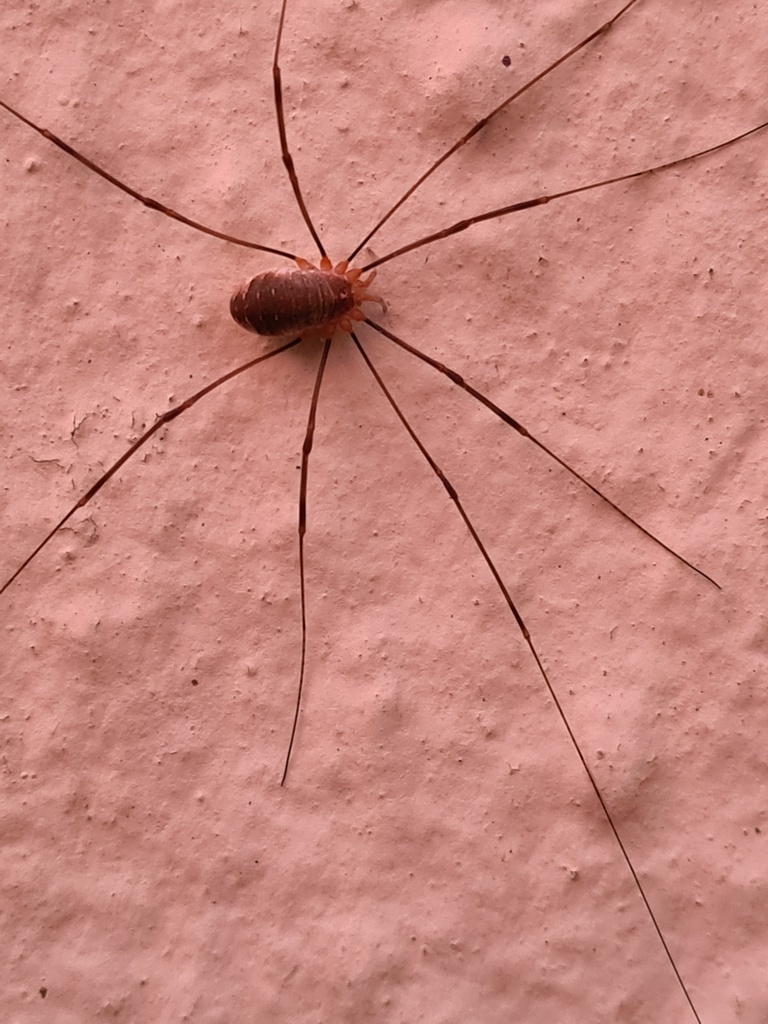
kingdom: Animalia
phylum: Arthropoda
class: Arachnida
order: Opiliones
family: Phalangiidae
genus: Opilio
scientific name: Opilio canestrinii
